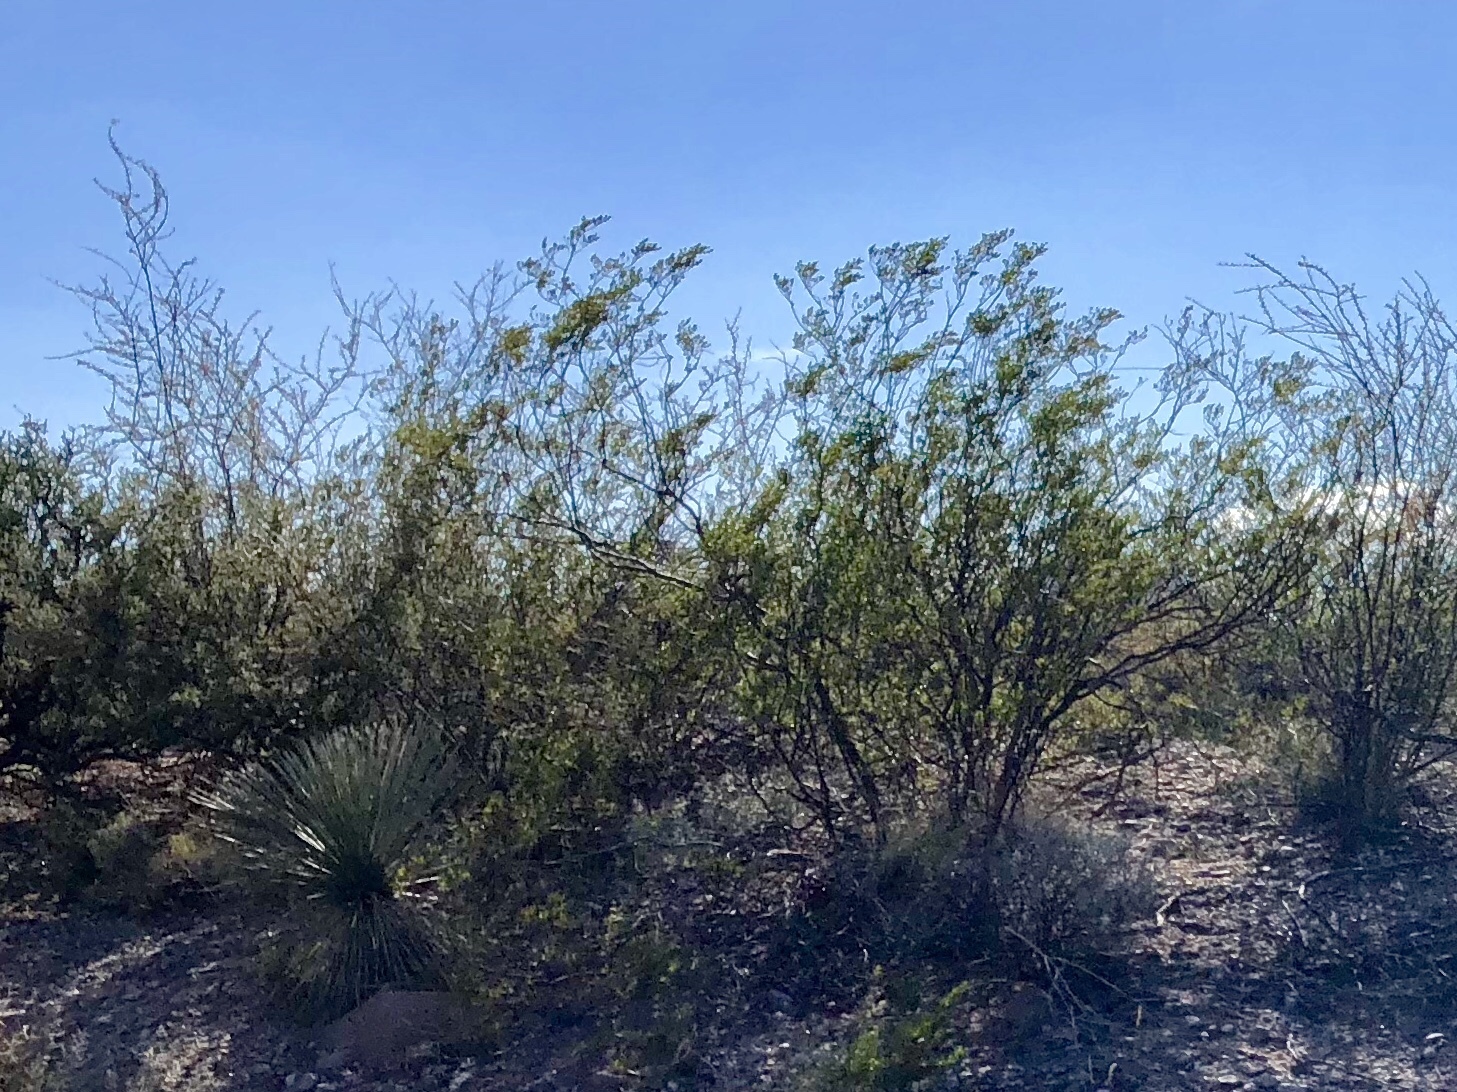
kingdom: Plantae
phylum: Tracheophyta
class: Magnoliopsida
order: Zygophyllales
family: Zygophyllaceae
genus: Larrea
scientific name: Larrea tridentata
